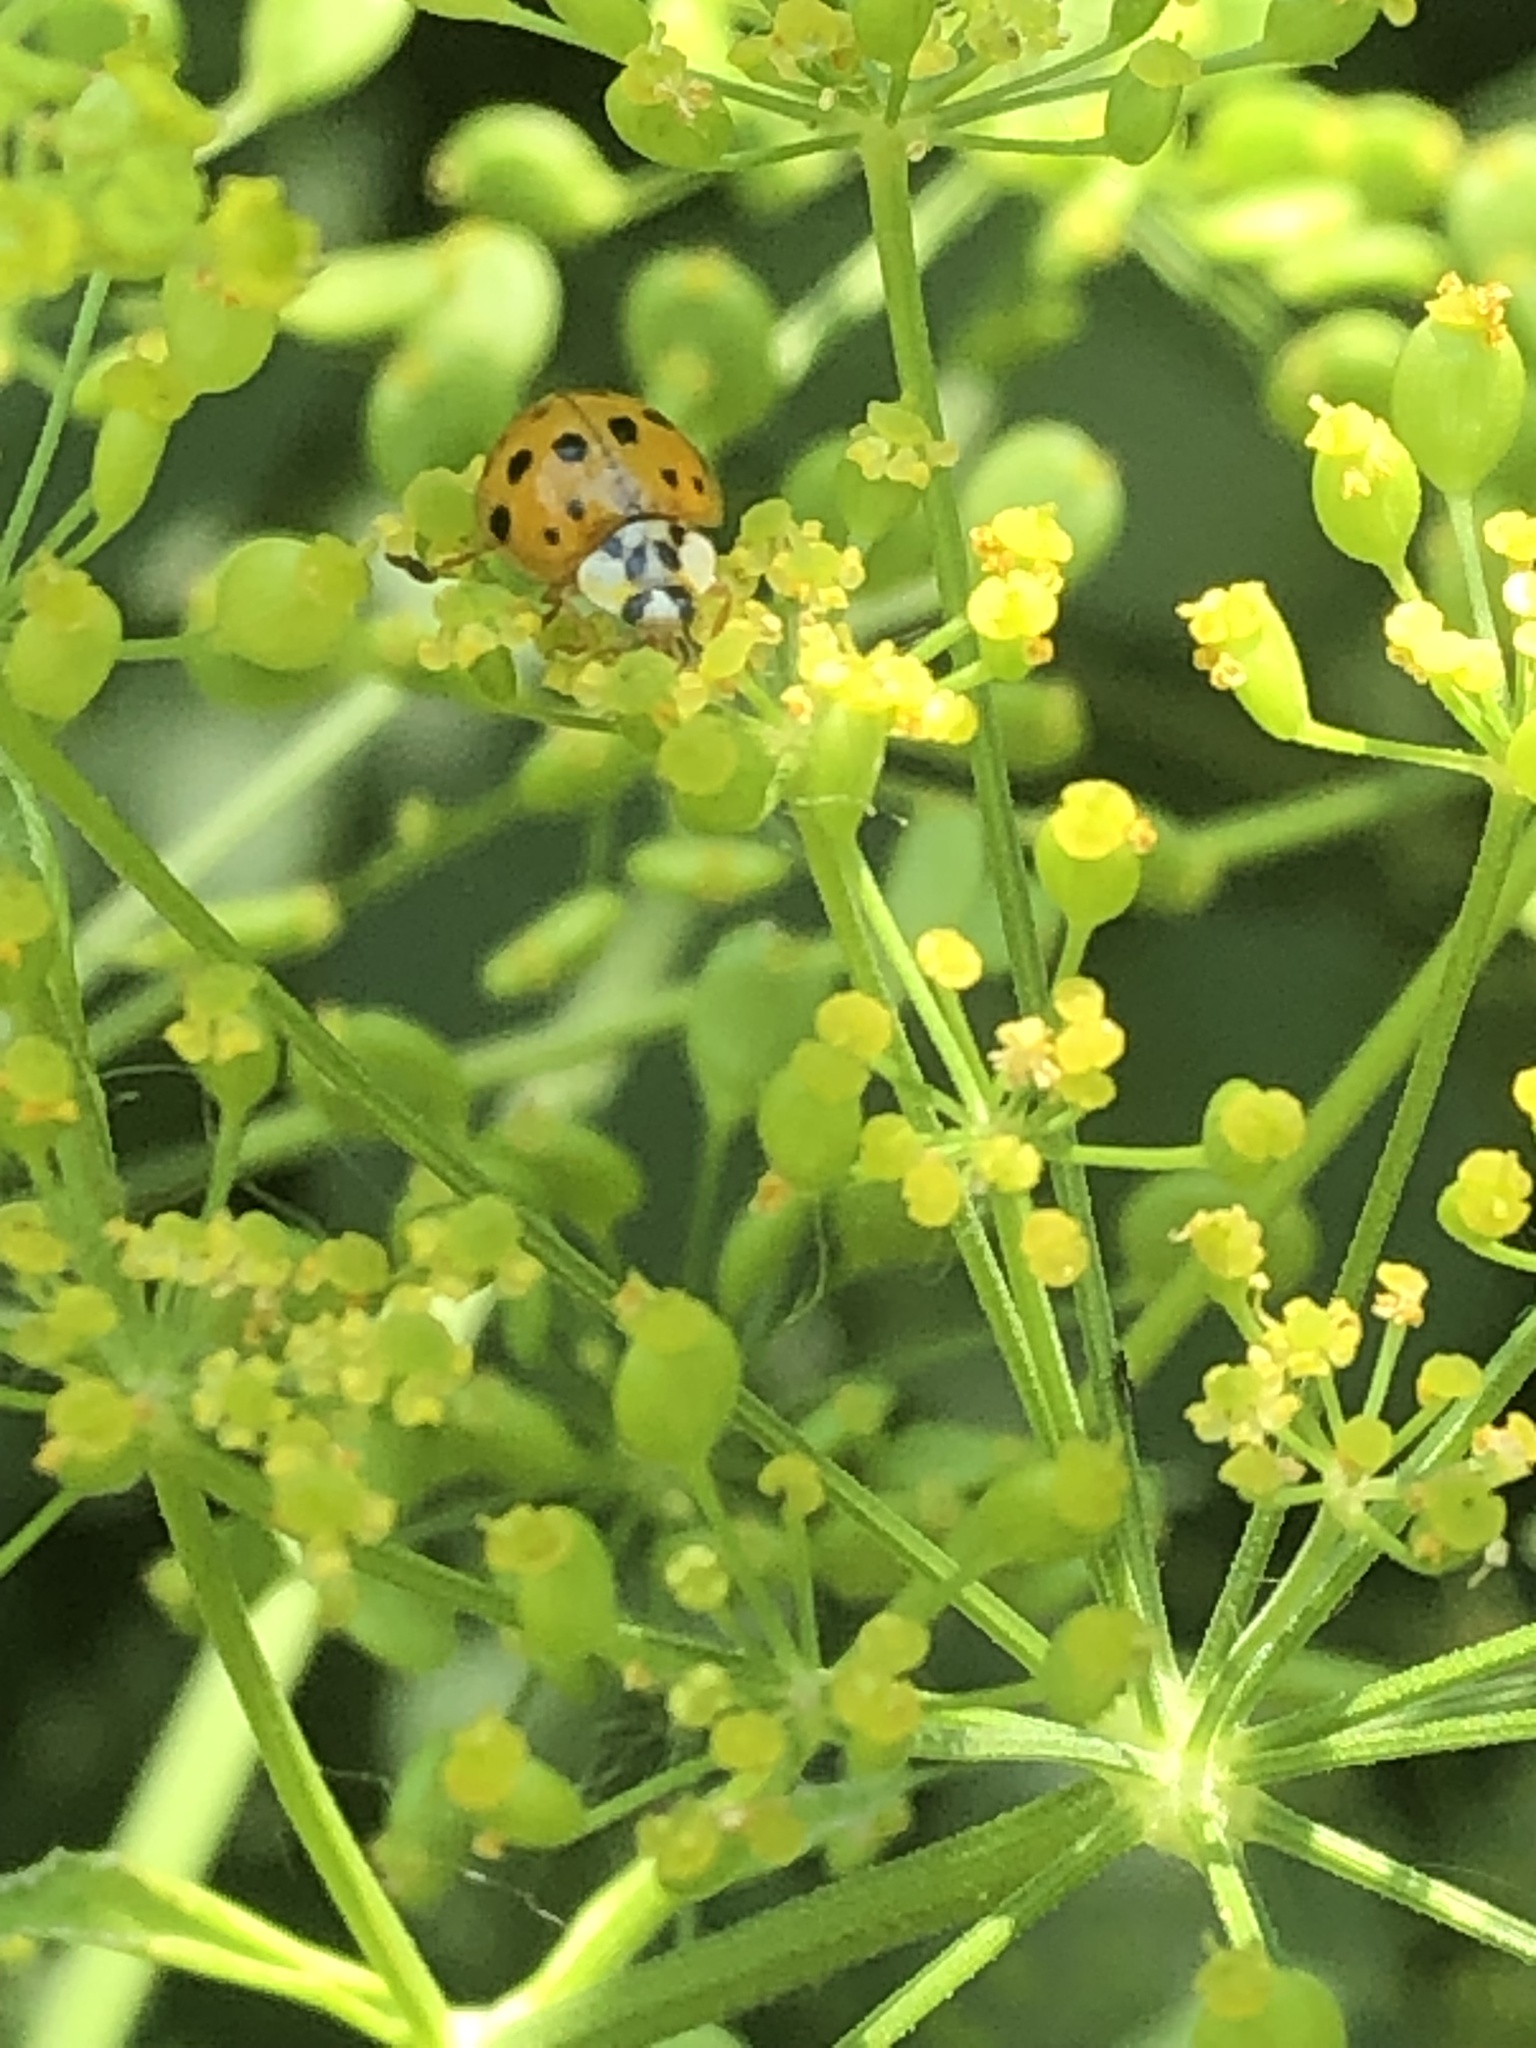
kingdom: Animalia
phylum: Arthropoda
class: Insecta
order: Coleoptera
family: Coccinellidae
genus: Harmonia
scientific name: Harmonia axyridis
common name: Harlequin ladybird
